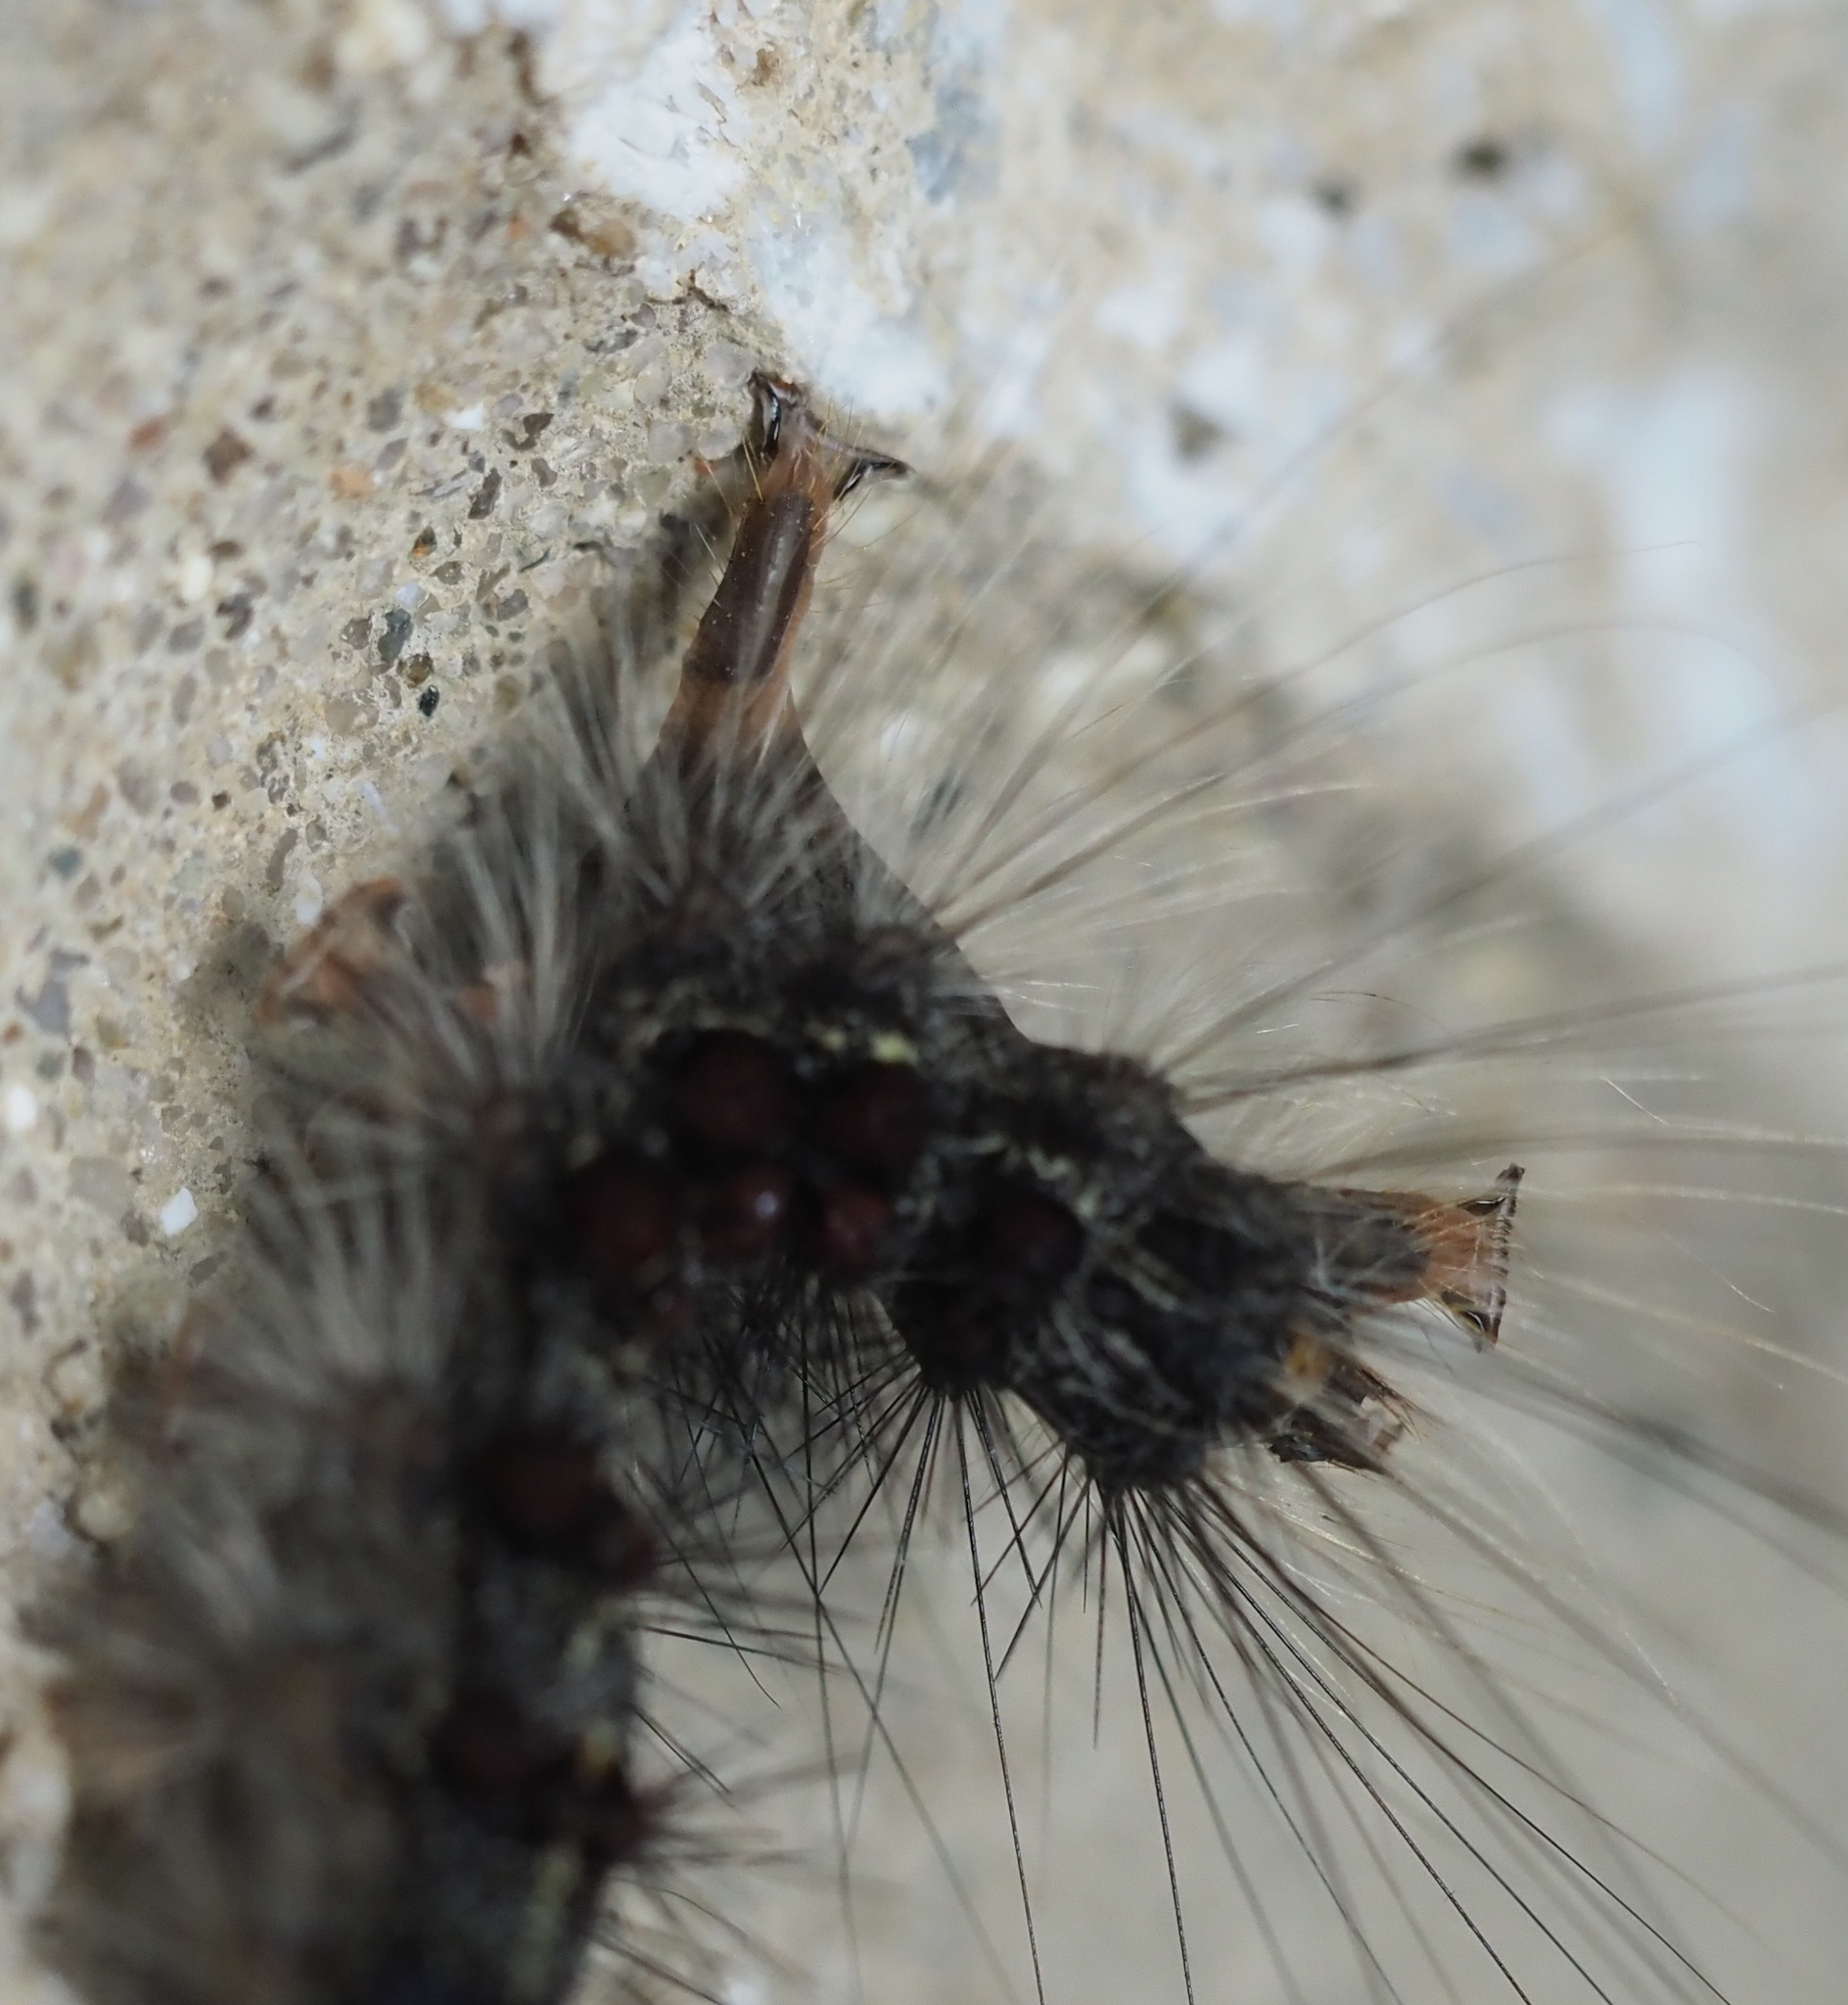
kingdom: Animalia
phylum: Arthropoda
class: Insecta
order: Lepidoptera
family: Erebidae
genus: Lymantria
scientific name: Lymantria dispar
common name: Gypsy moth
